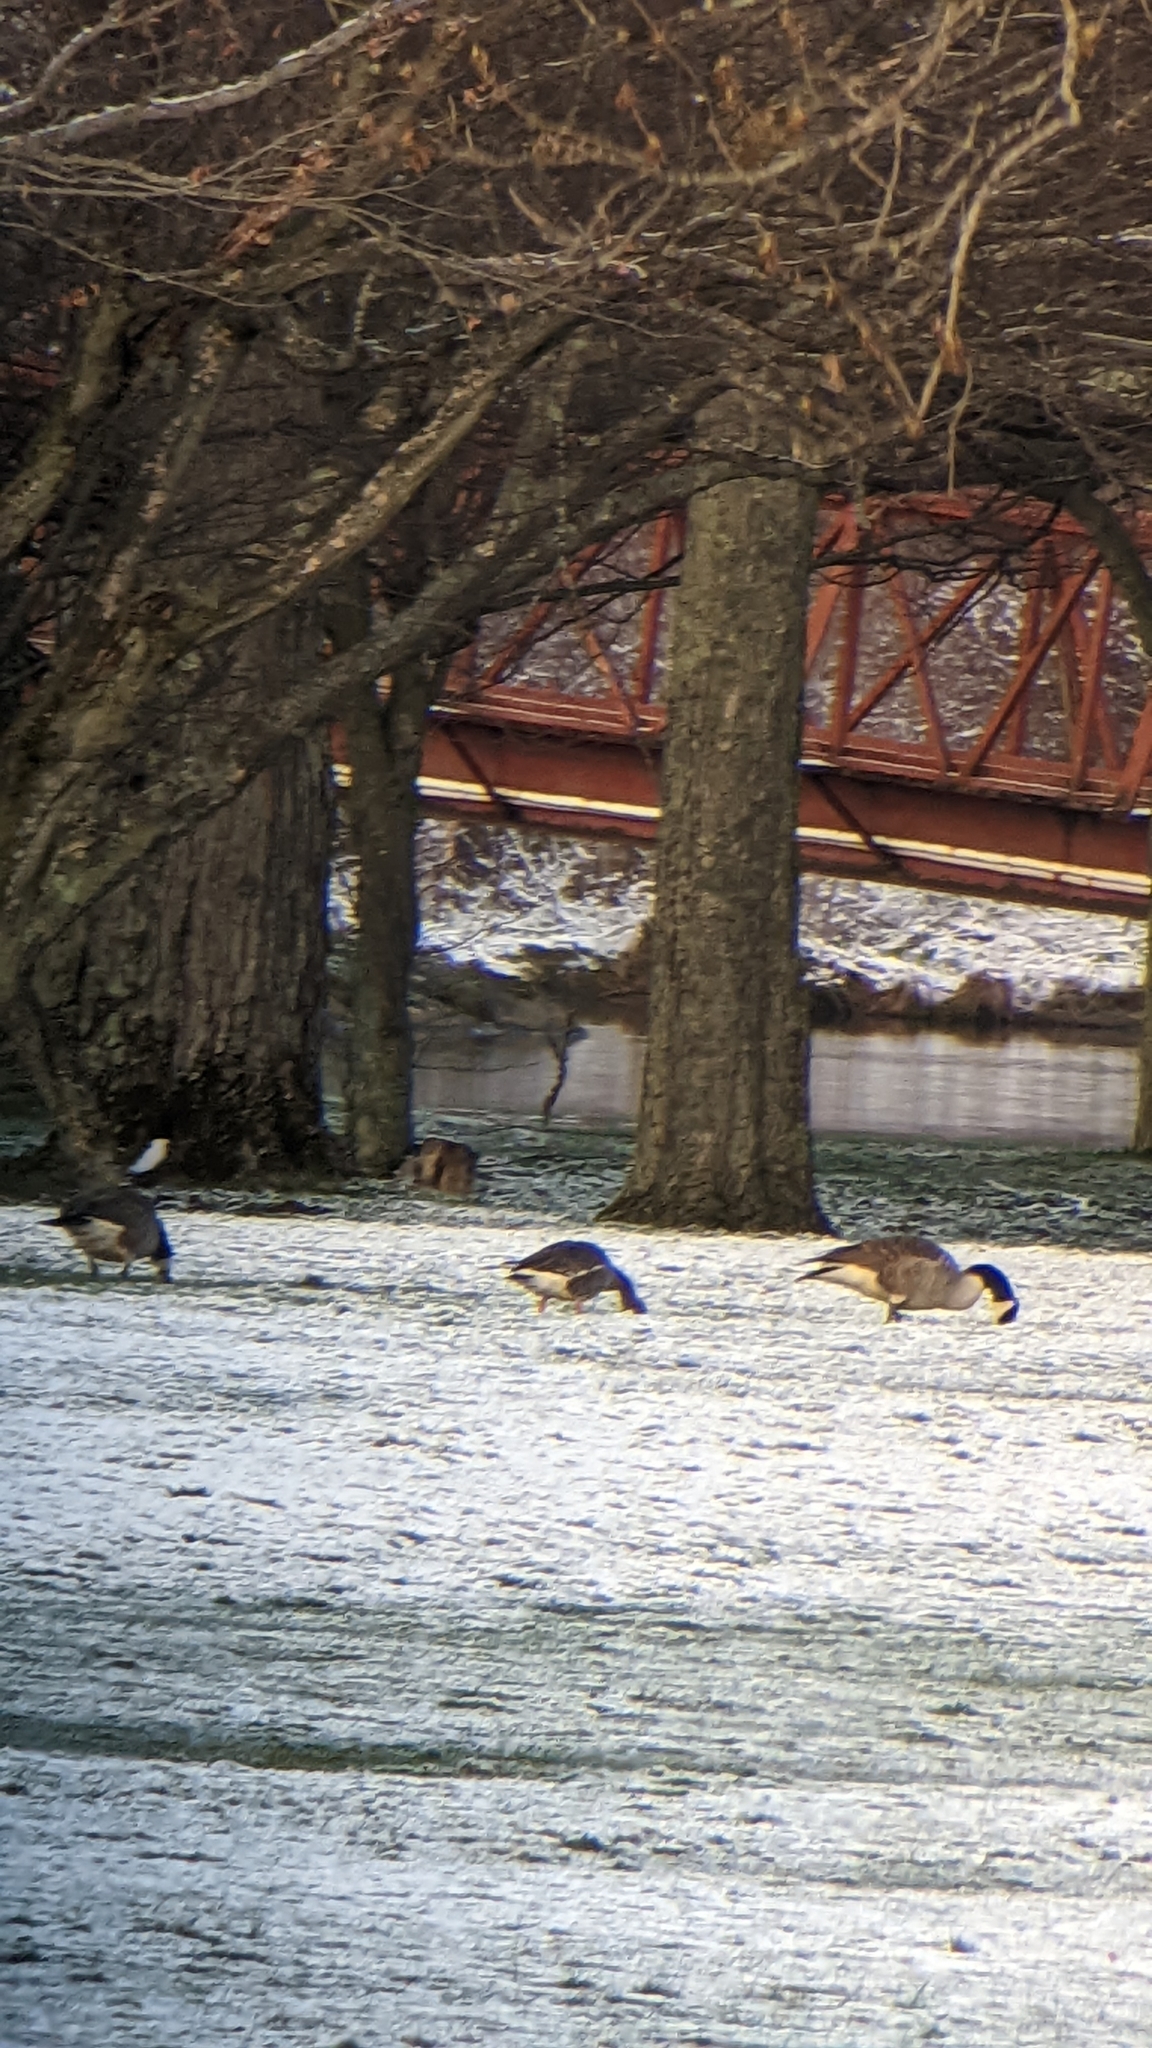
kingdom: Animalia
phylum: Chordata
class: Aves
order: Anseriformes
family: Anatidae
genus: Anser
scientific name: Anser albifrons
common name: Greater white-fronted goose
